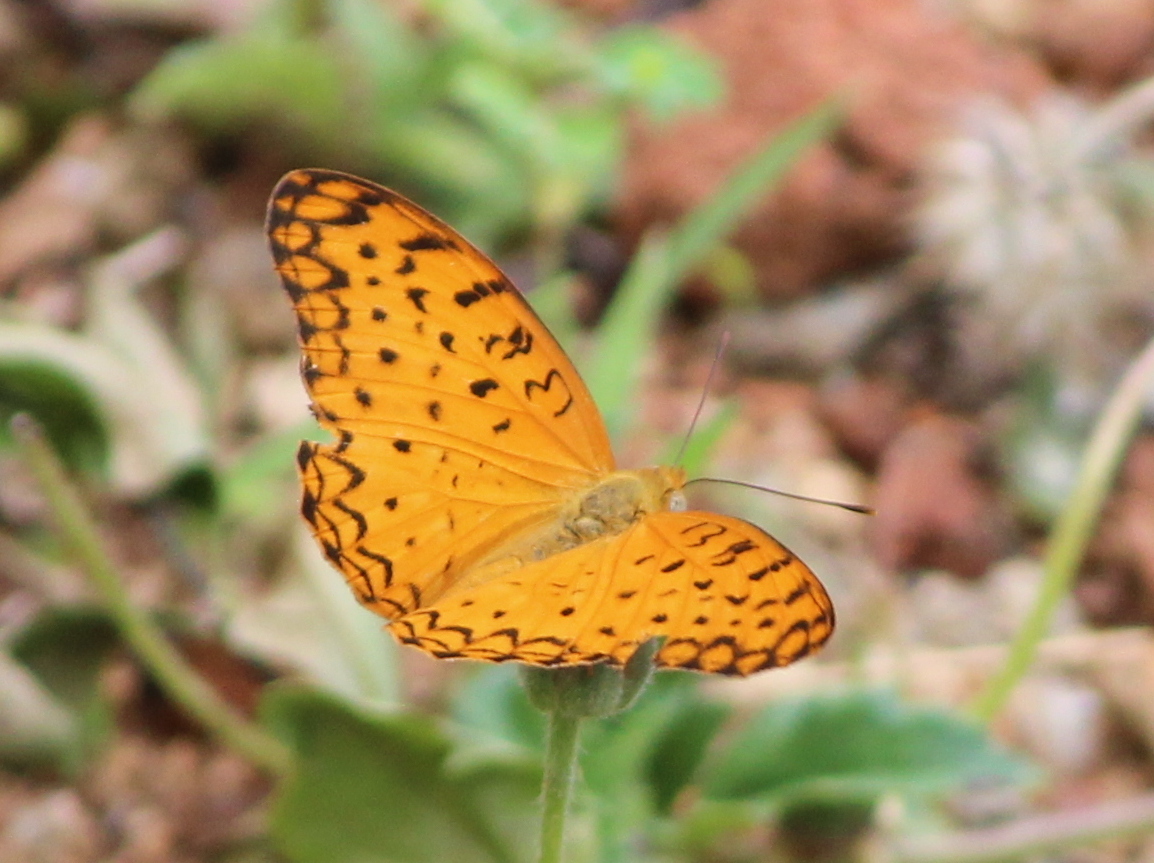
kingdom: Animalia
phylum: Arthropoda
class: Insecta
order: Lepidoptera
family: Nymphalidae
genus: Phalanta
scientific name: Phalanta phalantha
